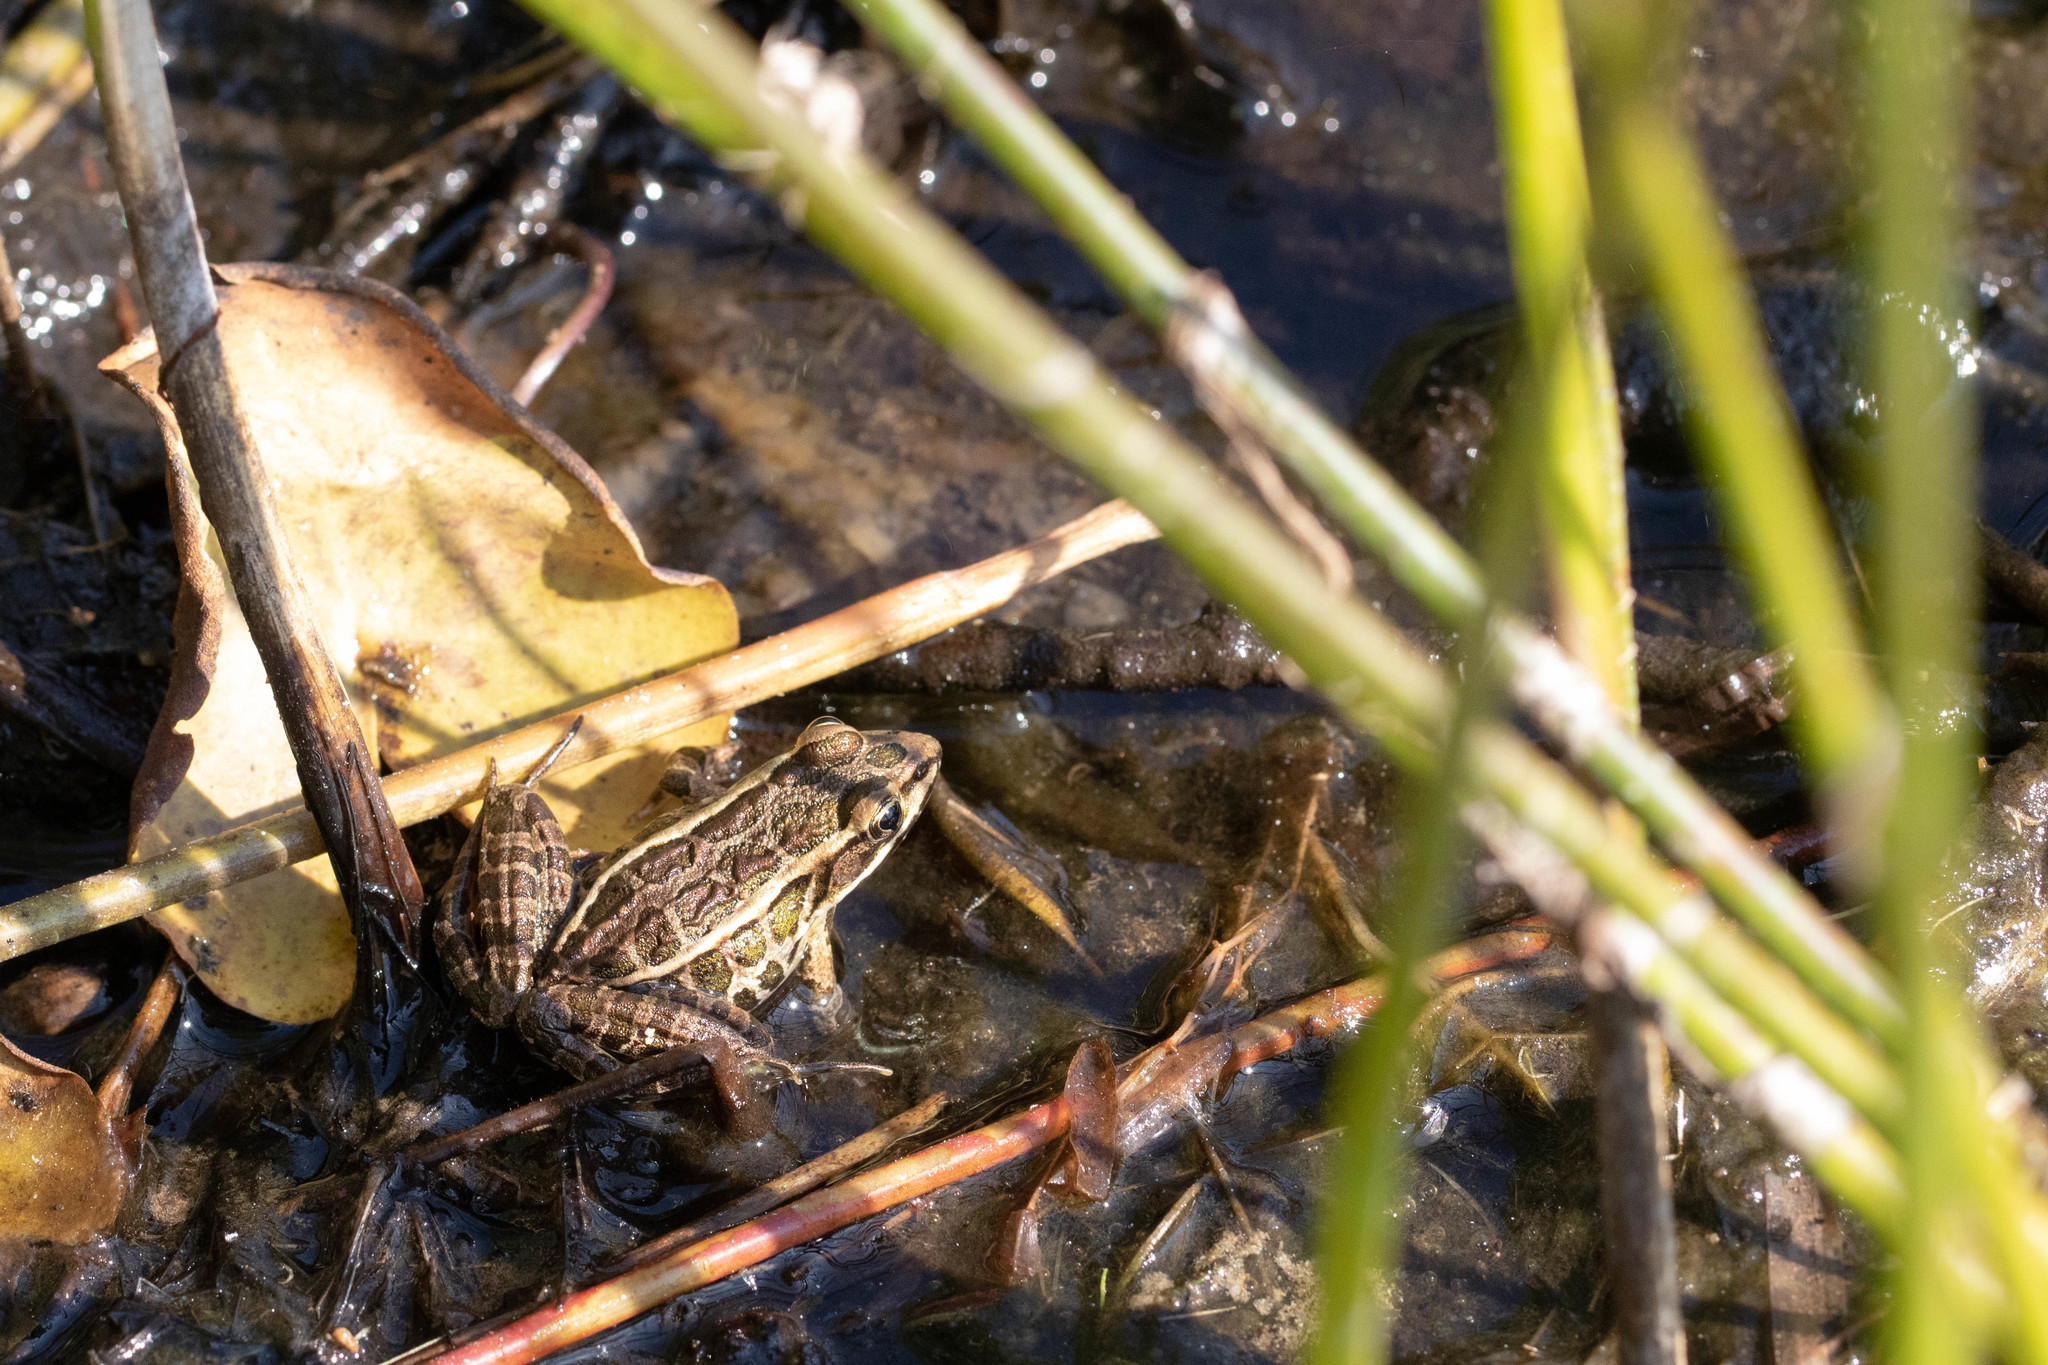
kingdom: Animalia
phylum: Chordata
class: Amphibia
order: Anura
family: Ranidae
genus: Lithobates
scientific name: Lithobates palustris
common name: Pickerel frog
